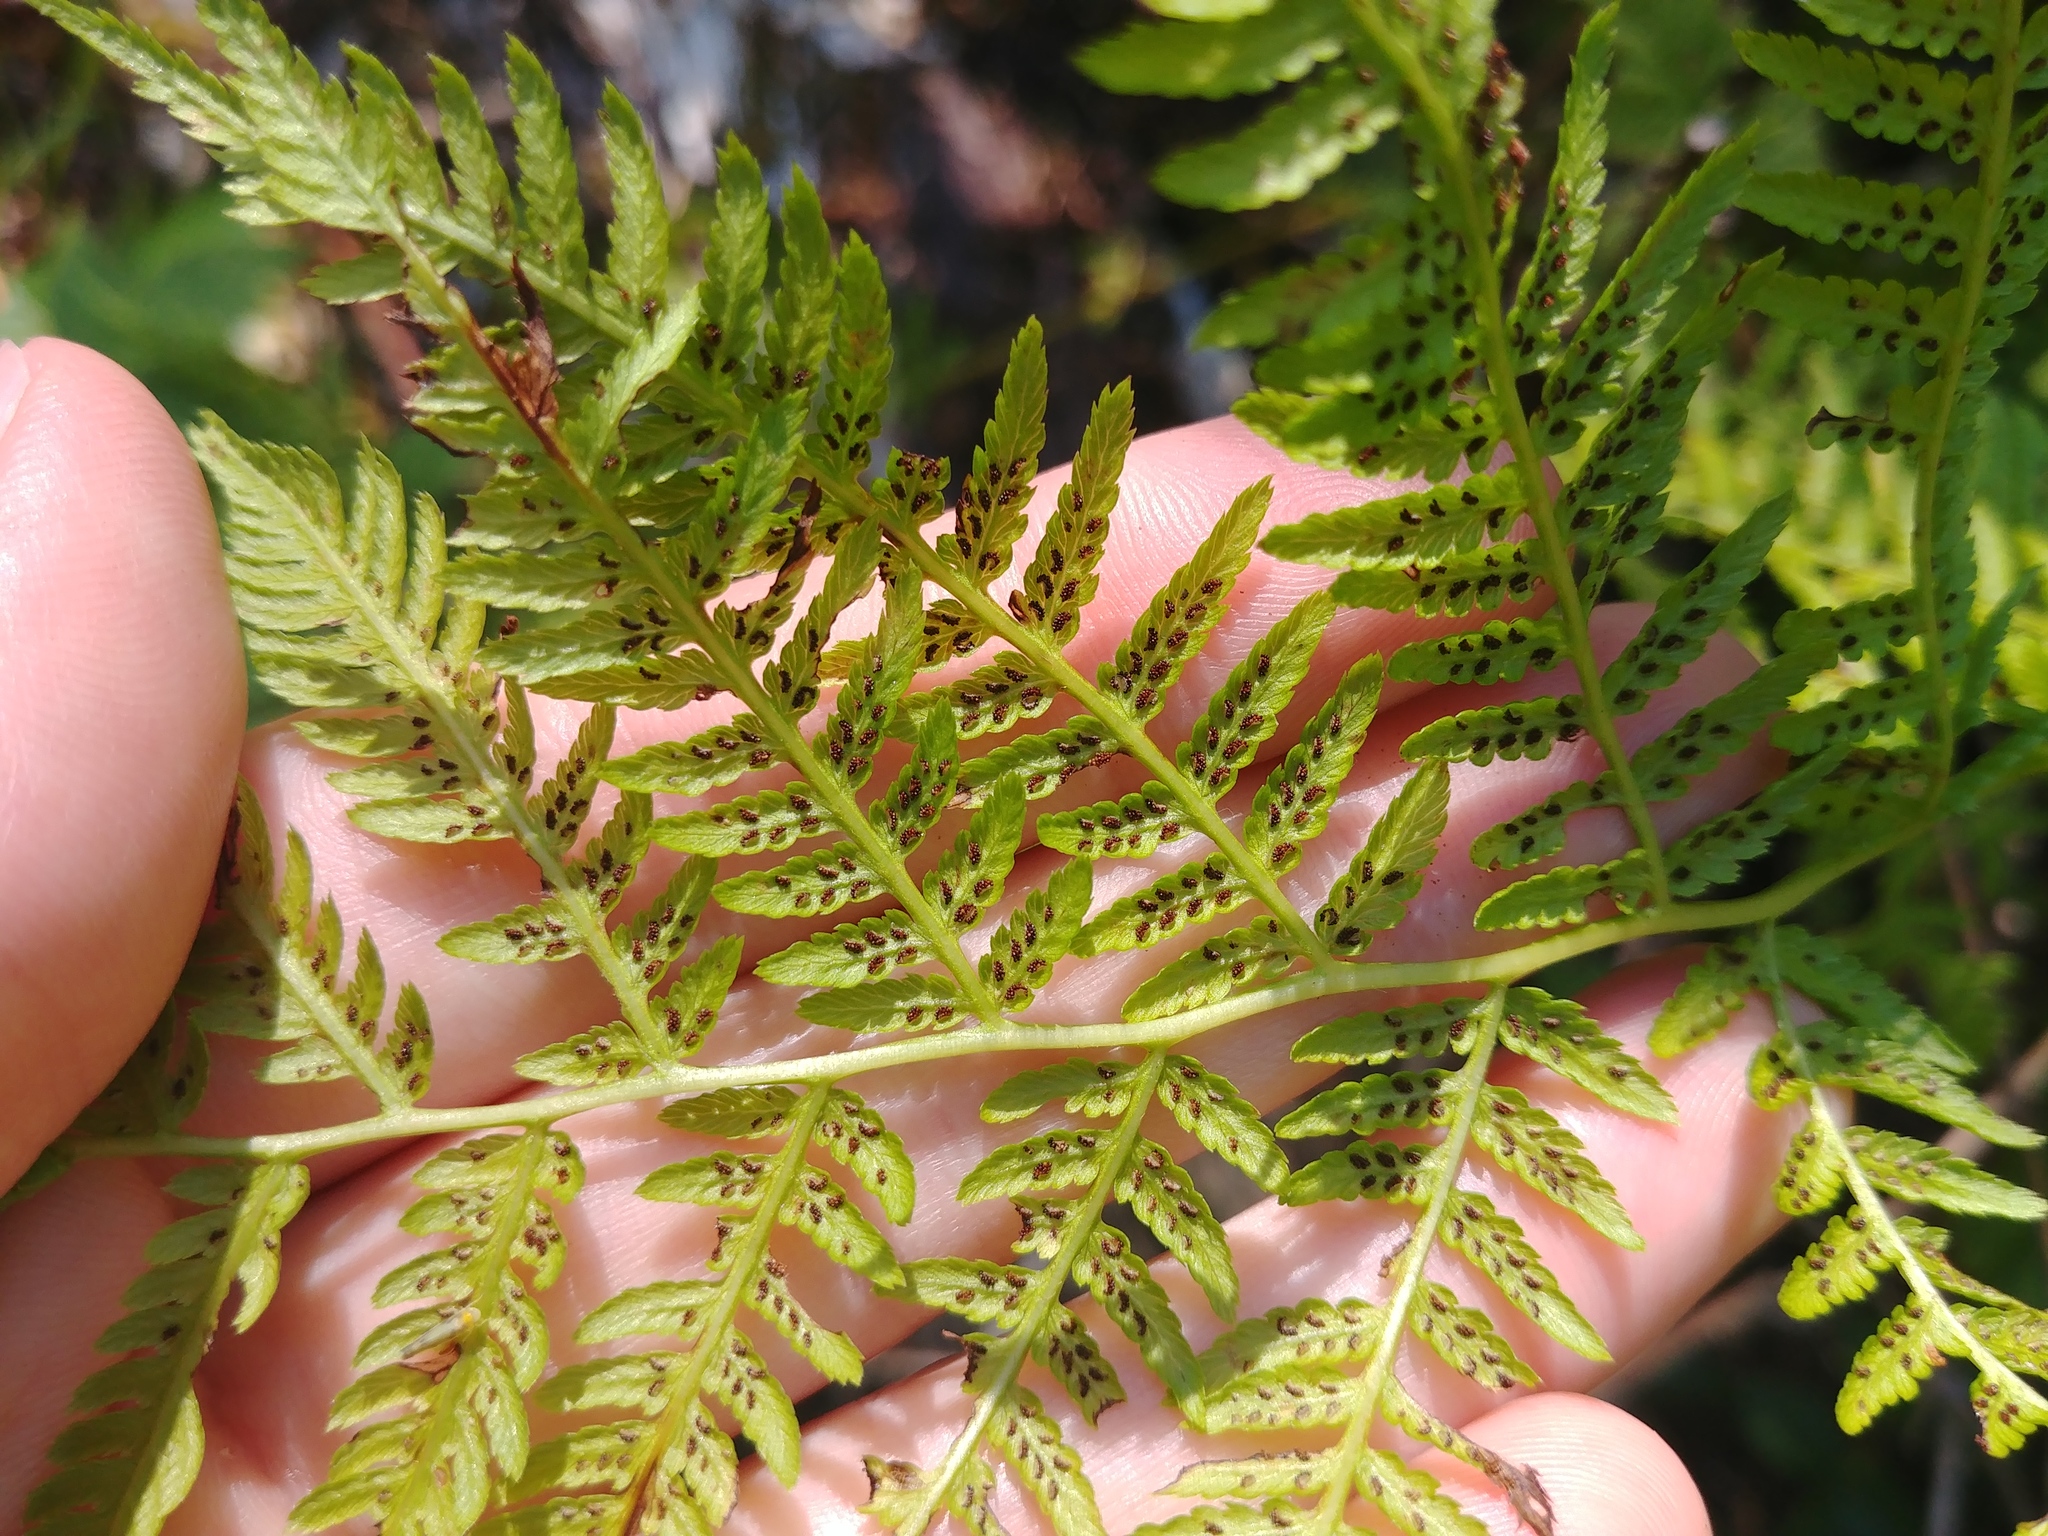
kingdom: Plantae
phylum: Tracheophyta
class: Polypodiopsida
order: Polypodiales
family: Athyriaceae
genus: Athyrium
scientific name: Athyrium angustum
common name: Northern lady fern
